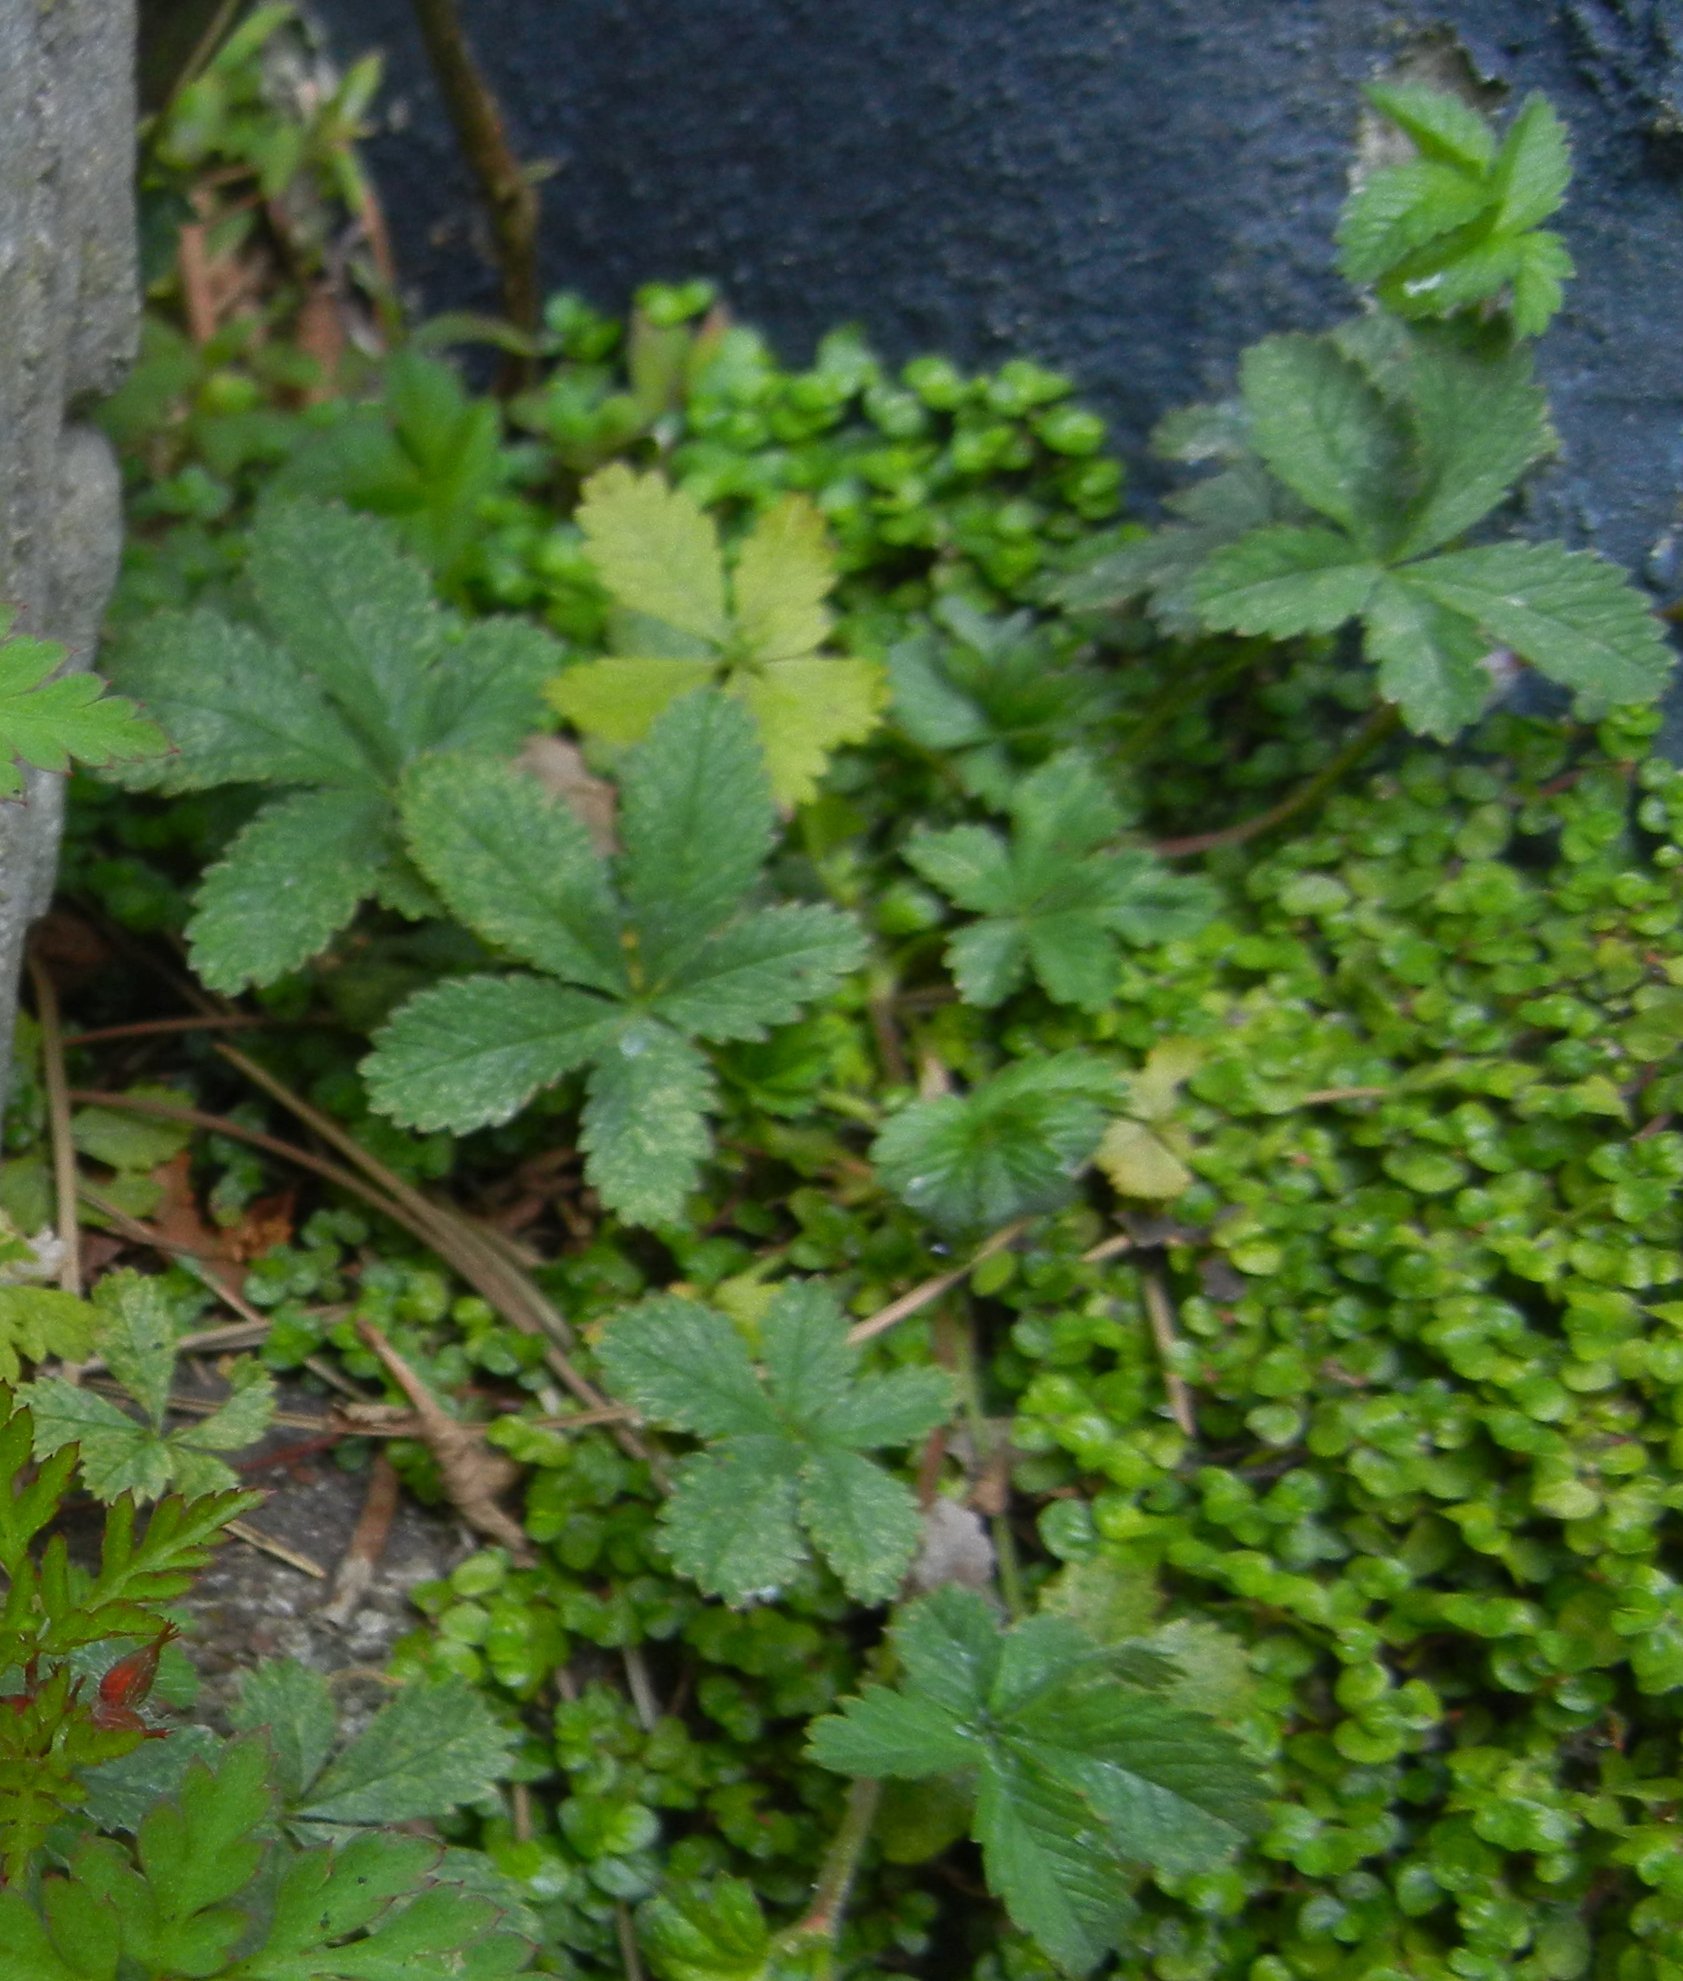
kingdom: Plantae
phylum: Tracheophyta
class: Magnoliopsida
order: Rosales
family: Rosaceae
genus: Potentilla
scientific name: Potentilla reptans
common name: Creeping cinquefoil
